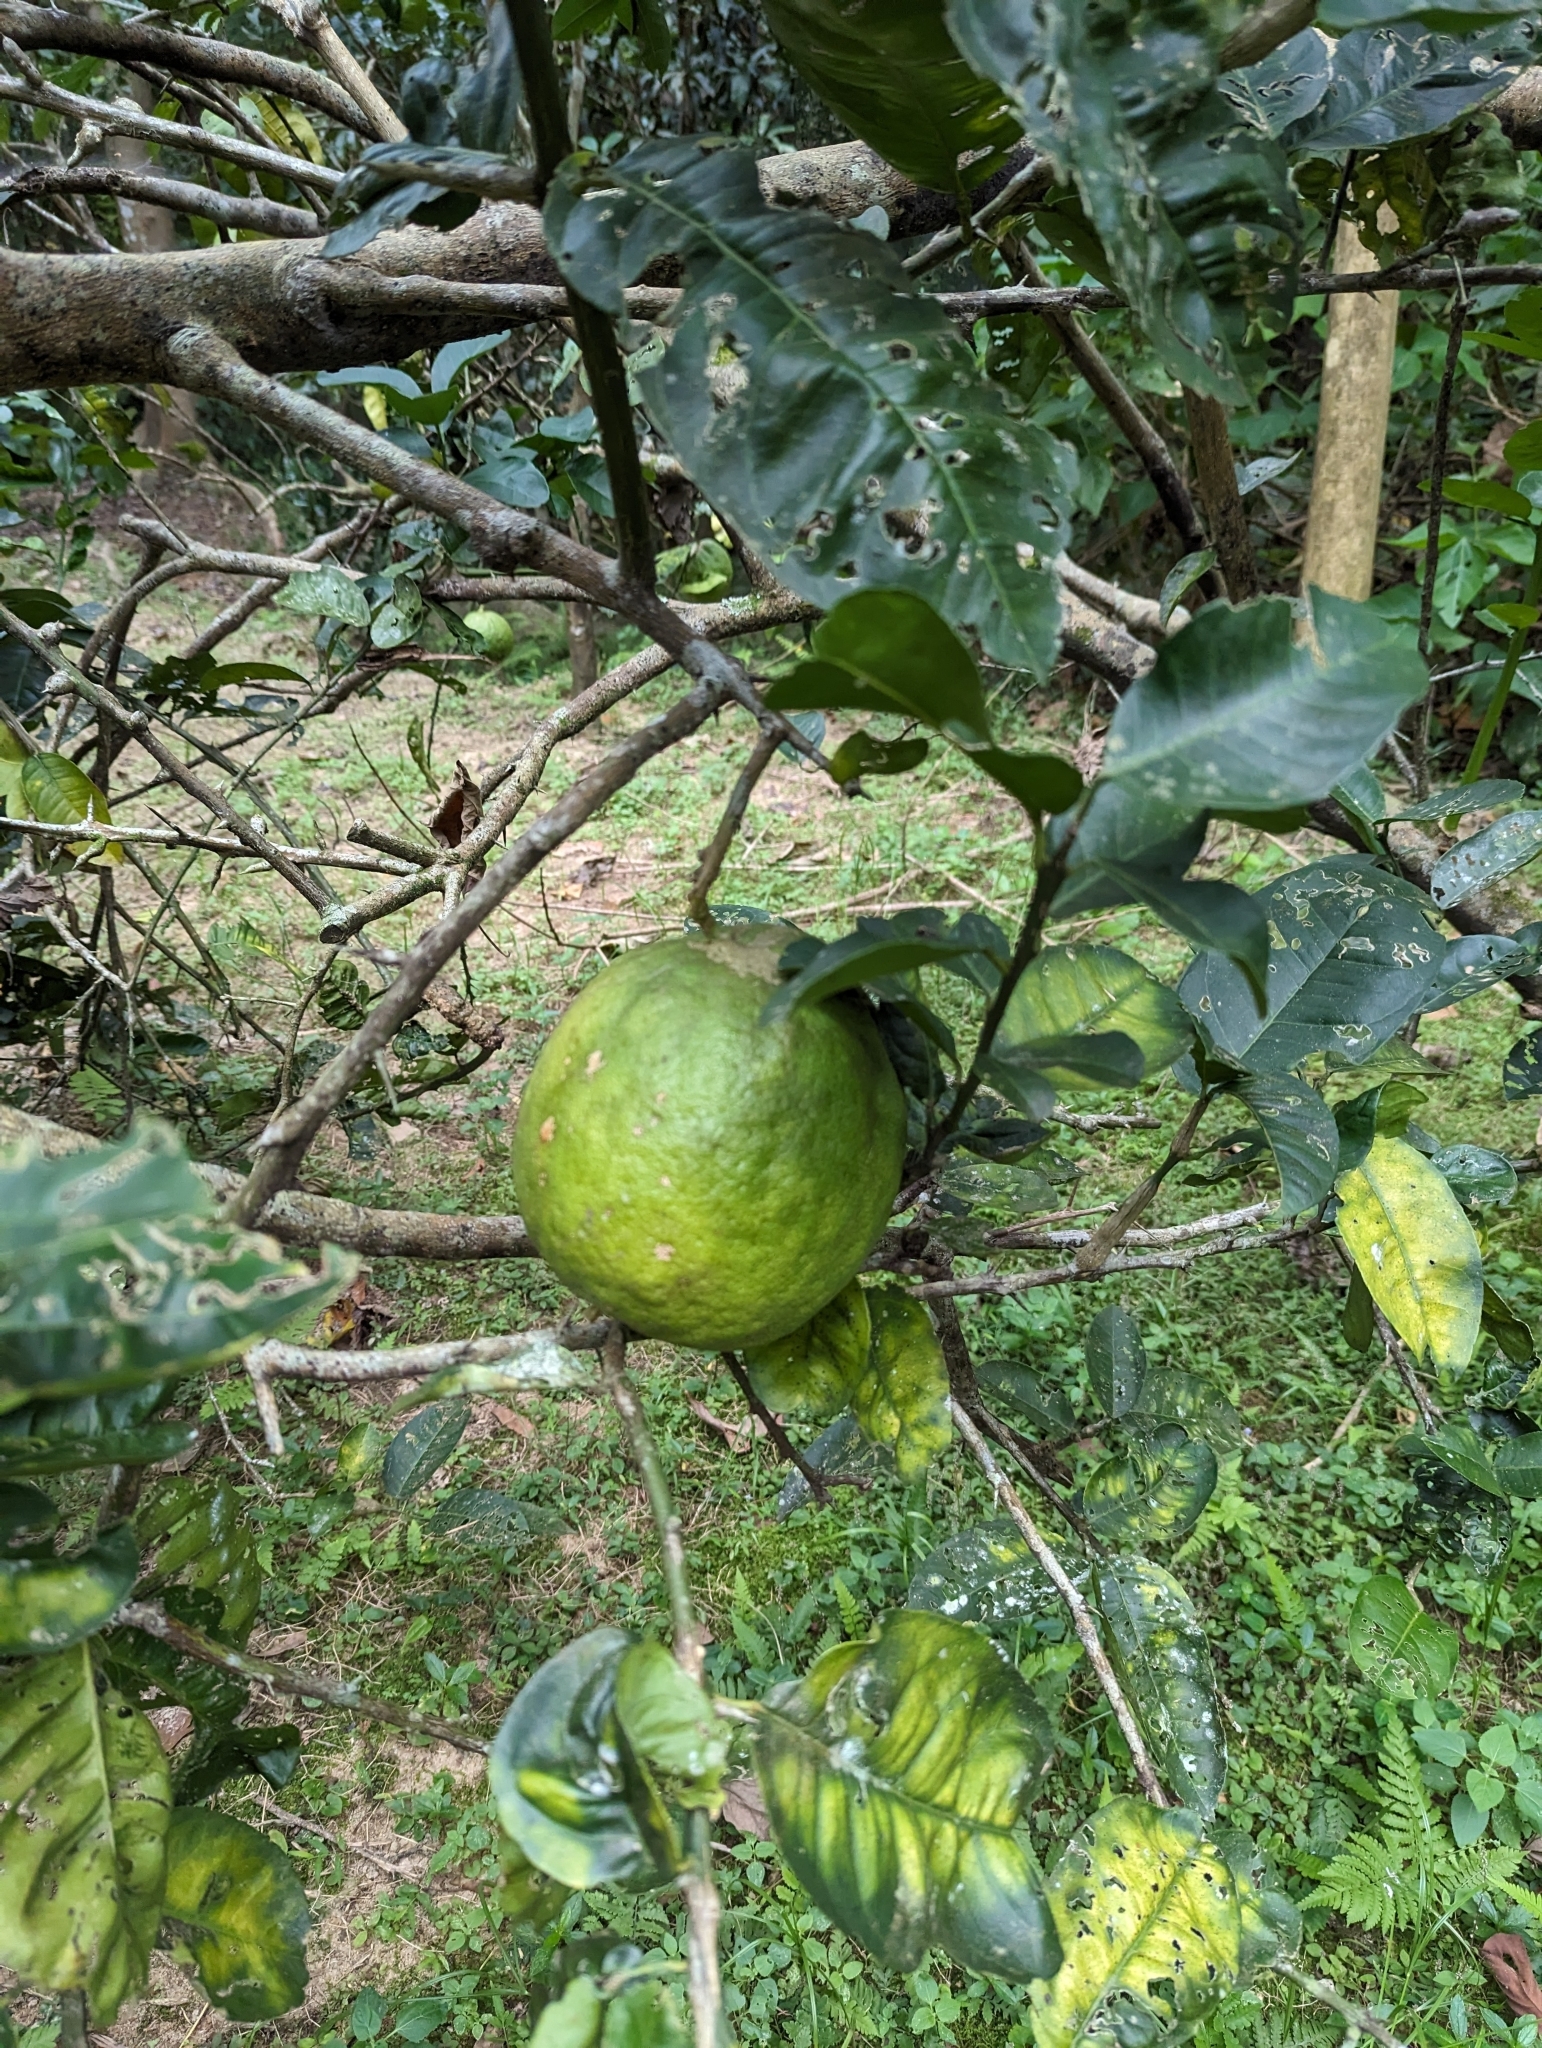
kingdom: Plantae
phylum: Tracheophyta
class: Magnoliopsida
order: Sapindales
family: Rutaceae
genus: Citrus
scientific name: Citrus maxima
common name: Pomelo
